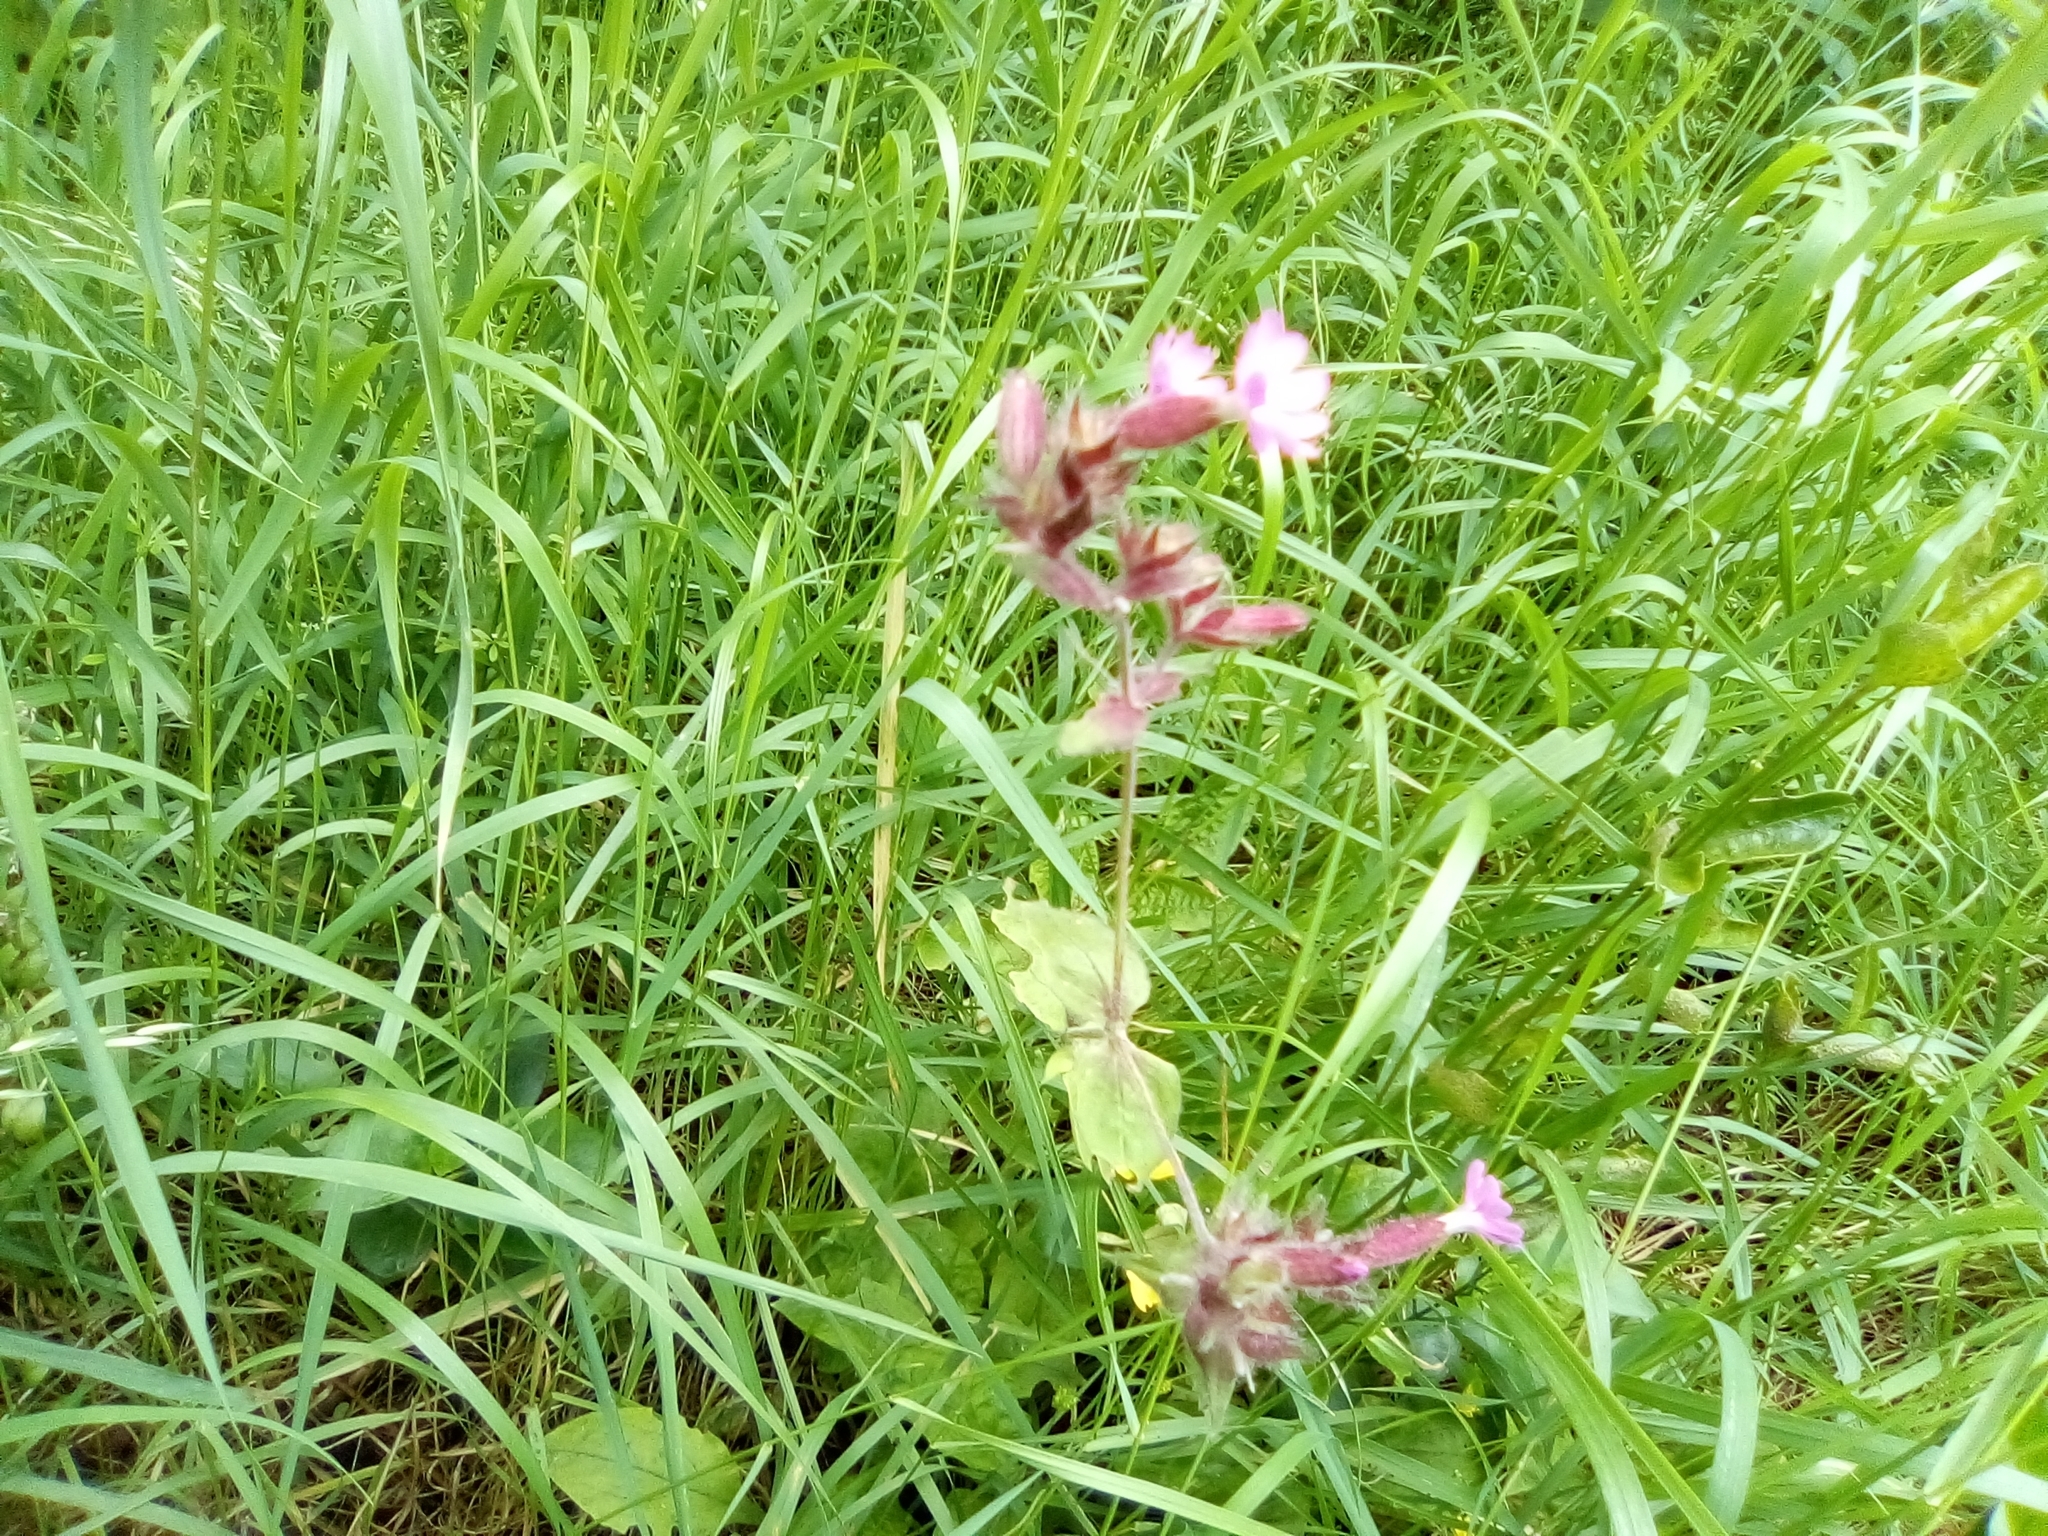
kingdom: Plantae
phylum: Tracheophyta
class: Magnoliopsida
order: Caryophyllales
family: Caryophyllaceae
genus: Silene
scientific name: Silene dioica
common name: Red campion
